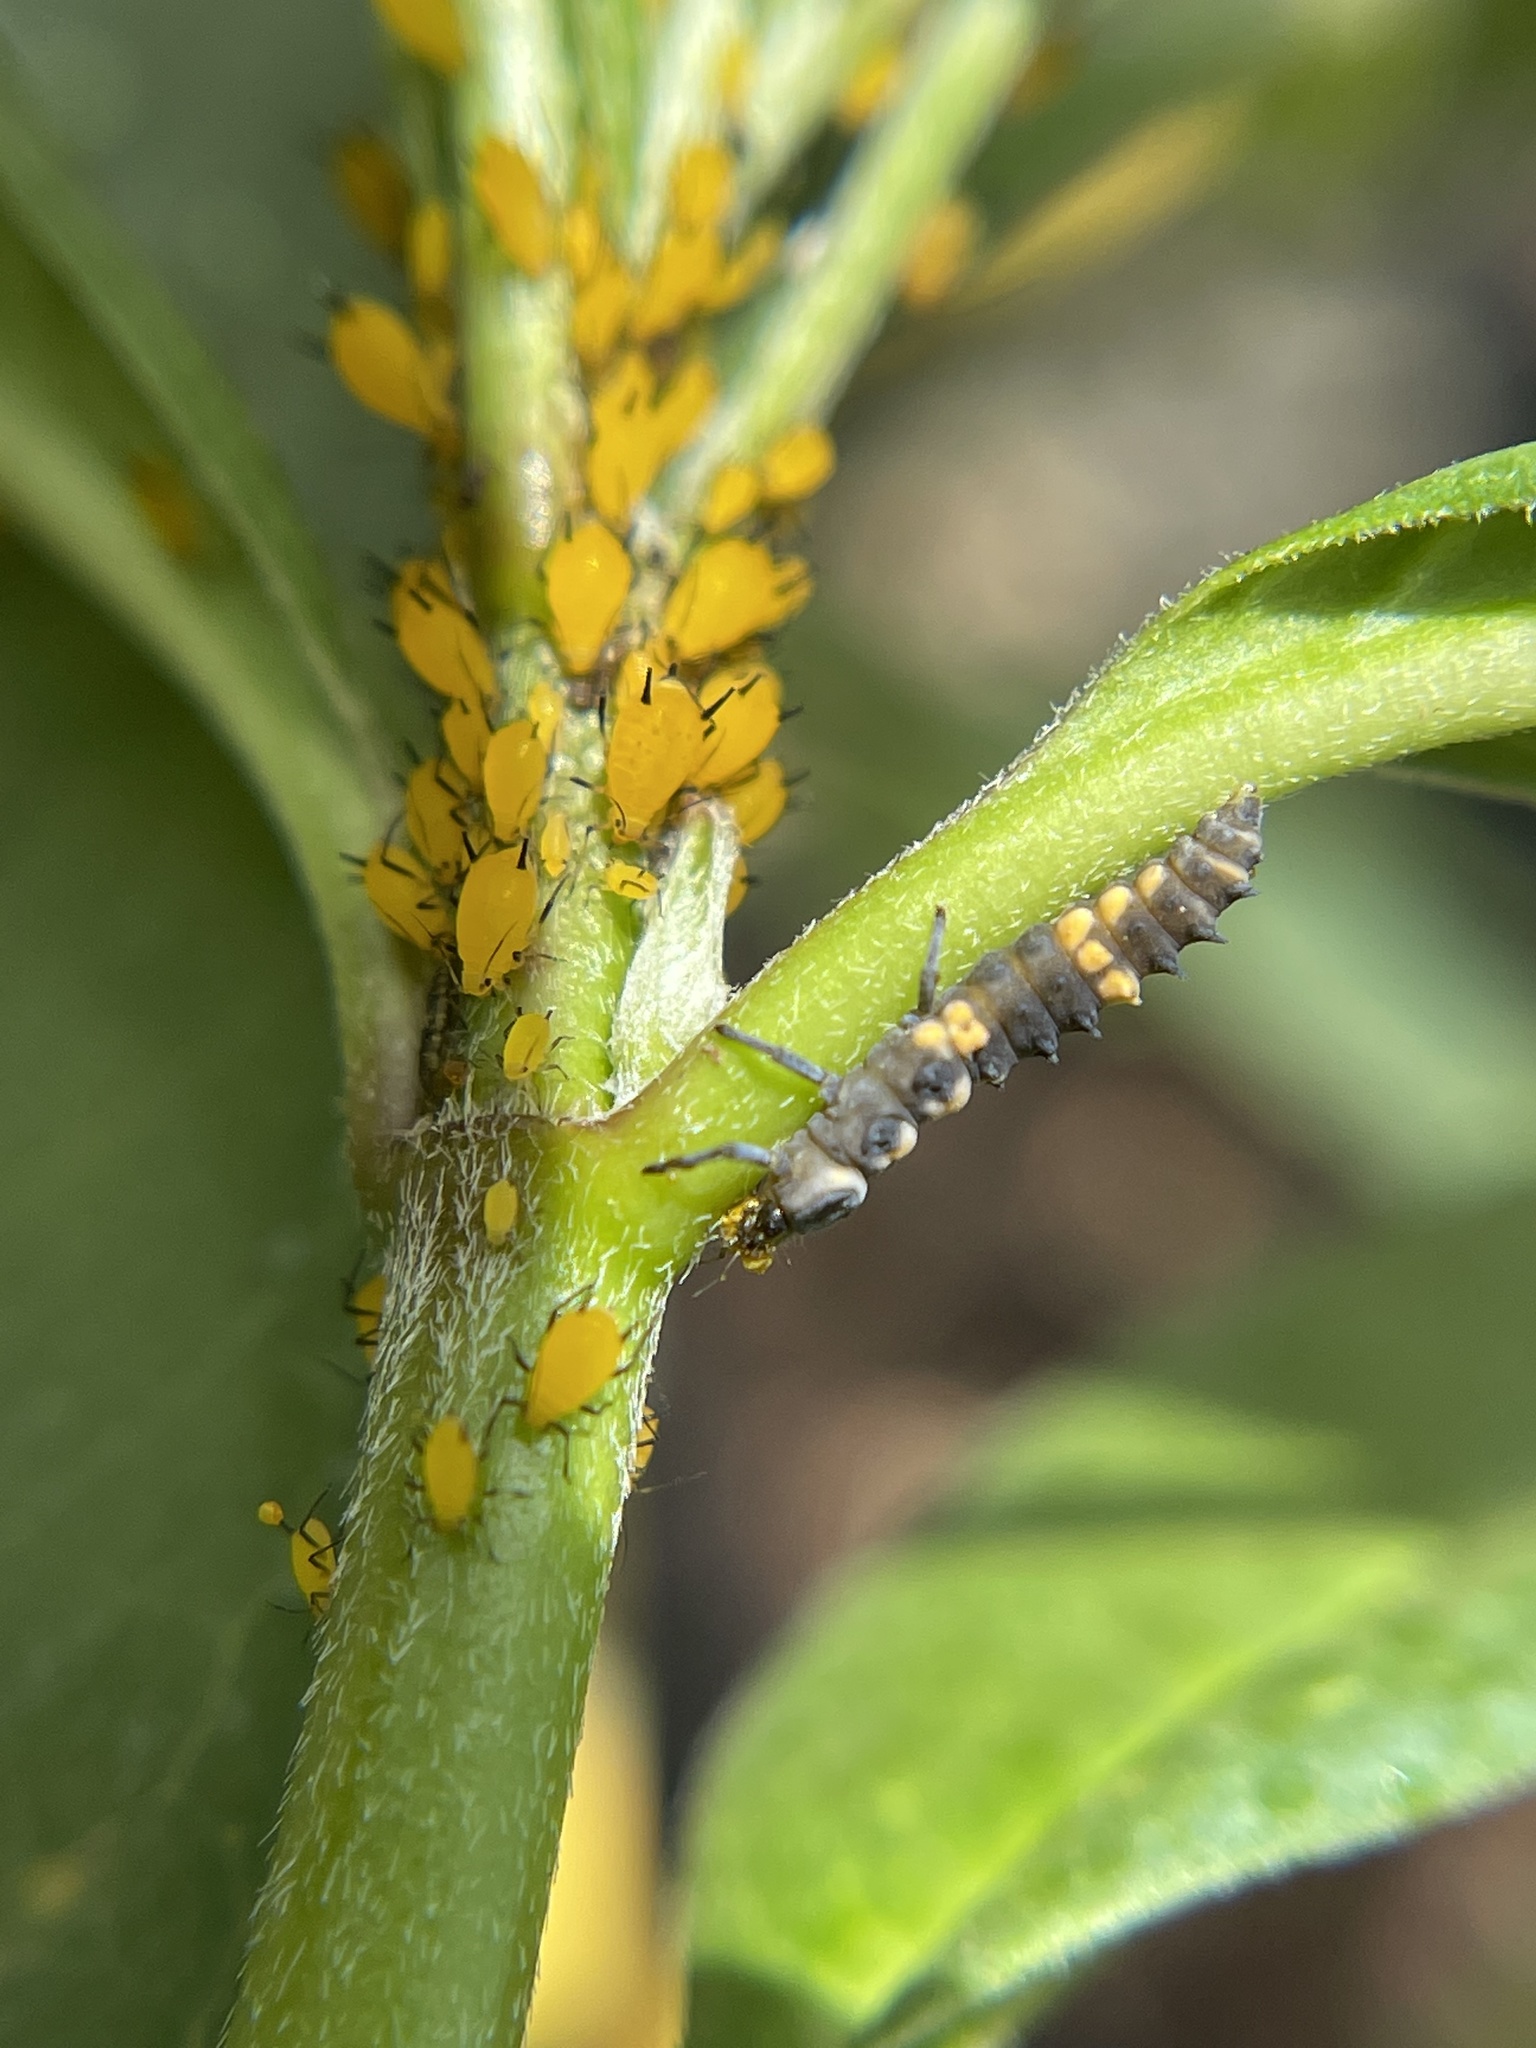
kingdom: Animalia
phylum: Arthropoda
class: Insecta
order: Hemiptera
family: Aphididae
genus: Aphis
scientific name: Aphis nerii
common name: Oleander aphid
